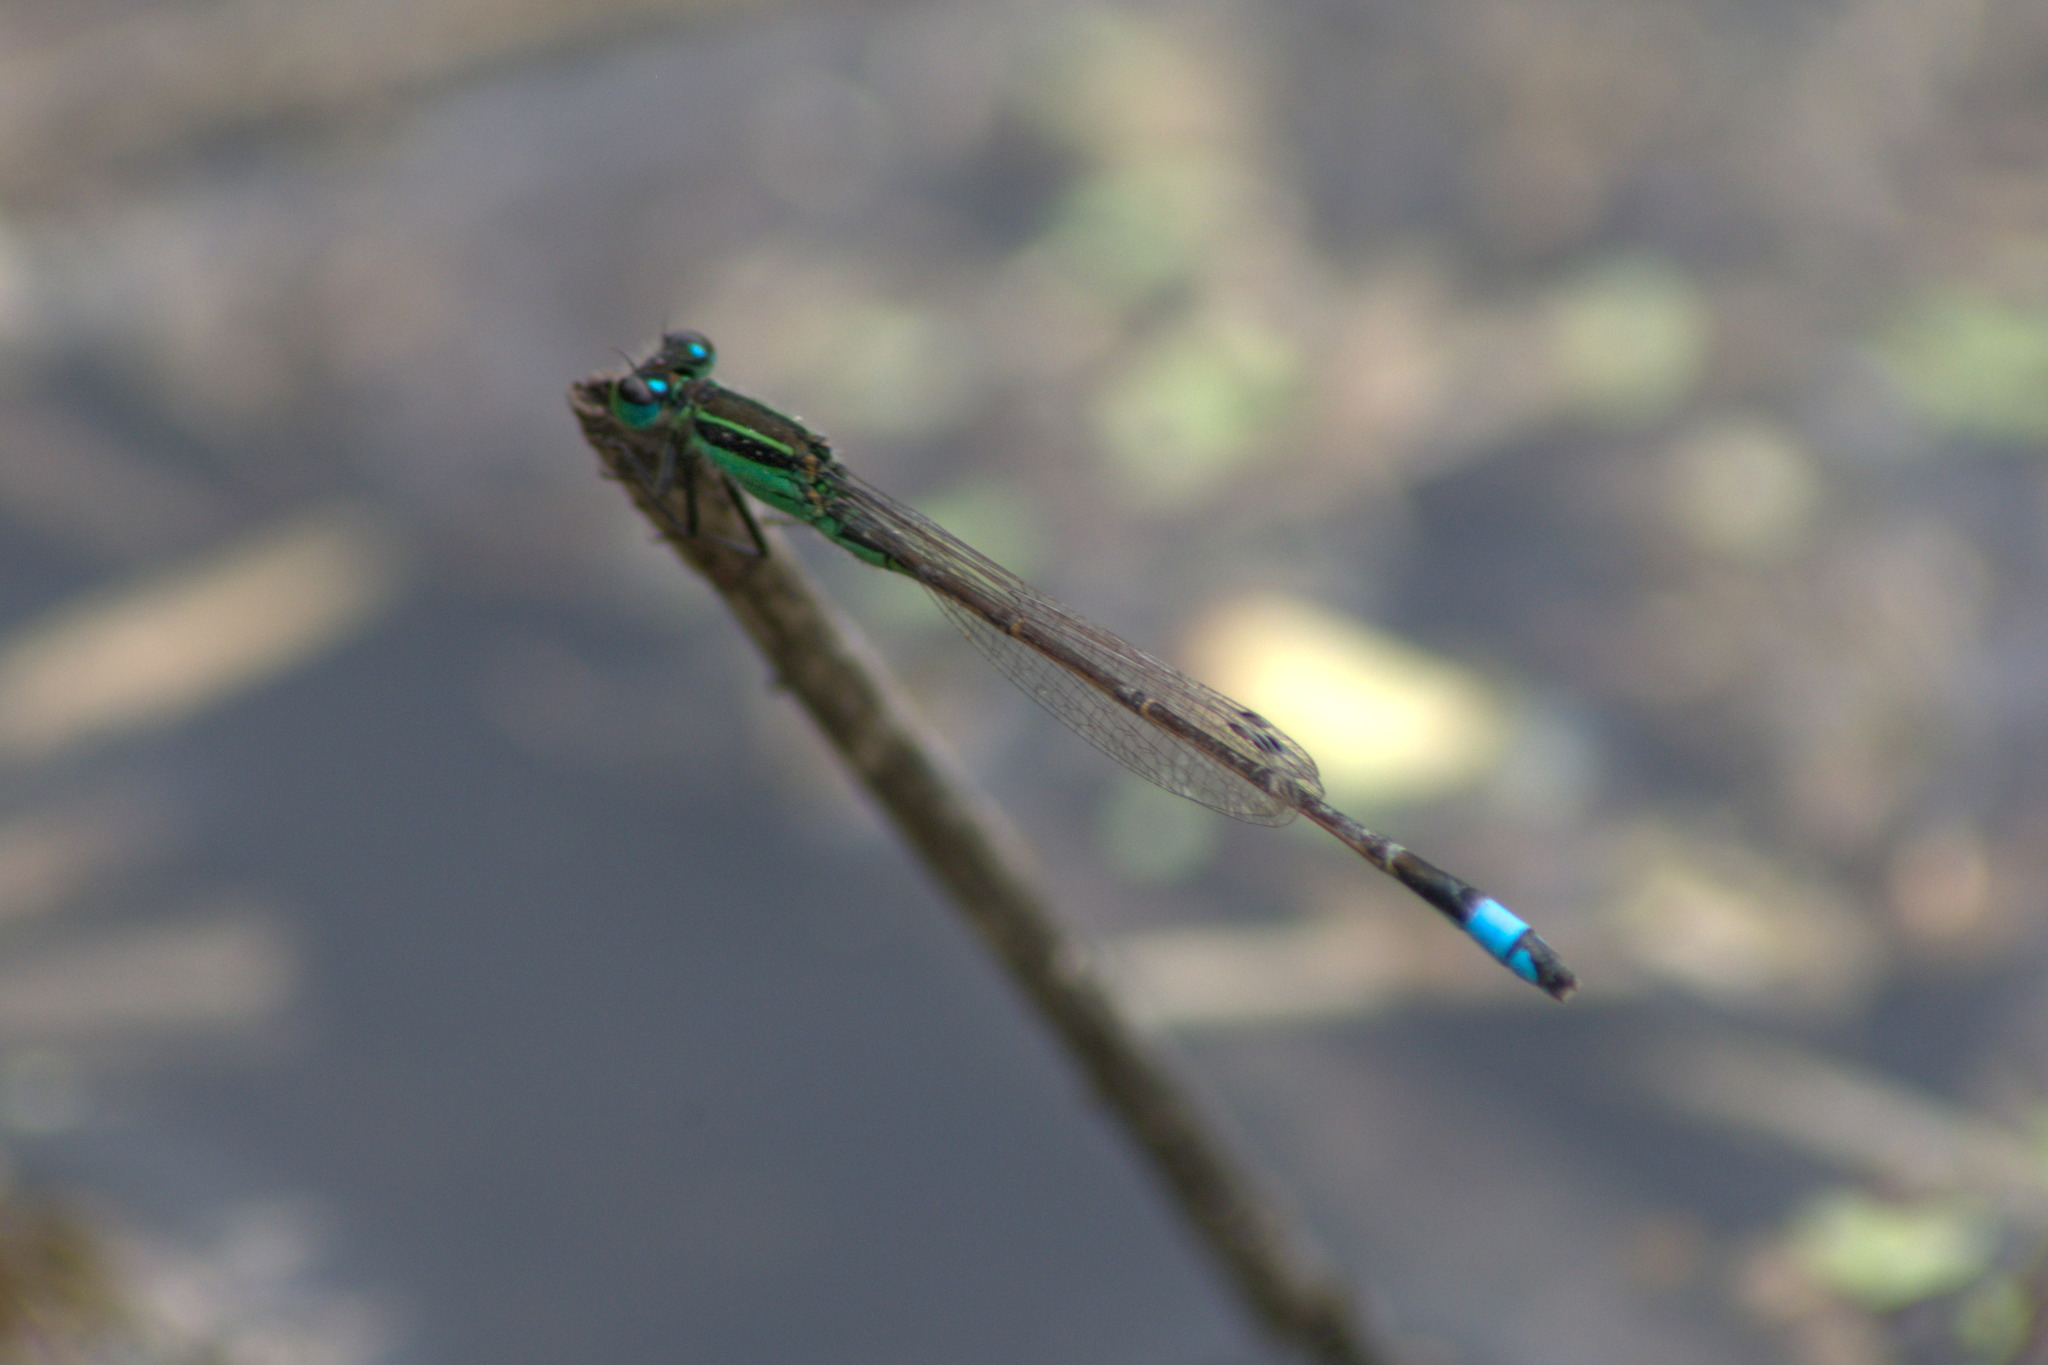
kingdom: Animalia
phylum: Arthropoda
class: Insecta
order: Odonata
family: Coenagrionidae
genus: Ischnura
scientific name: Ischnura ramburii
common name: Rambur's forktail
